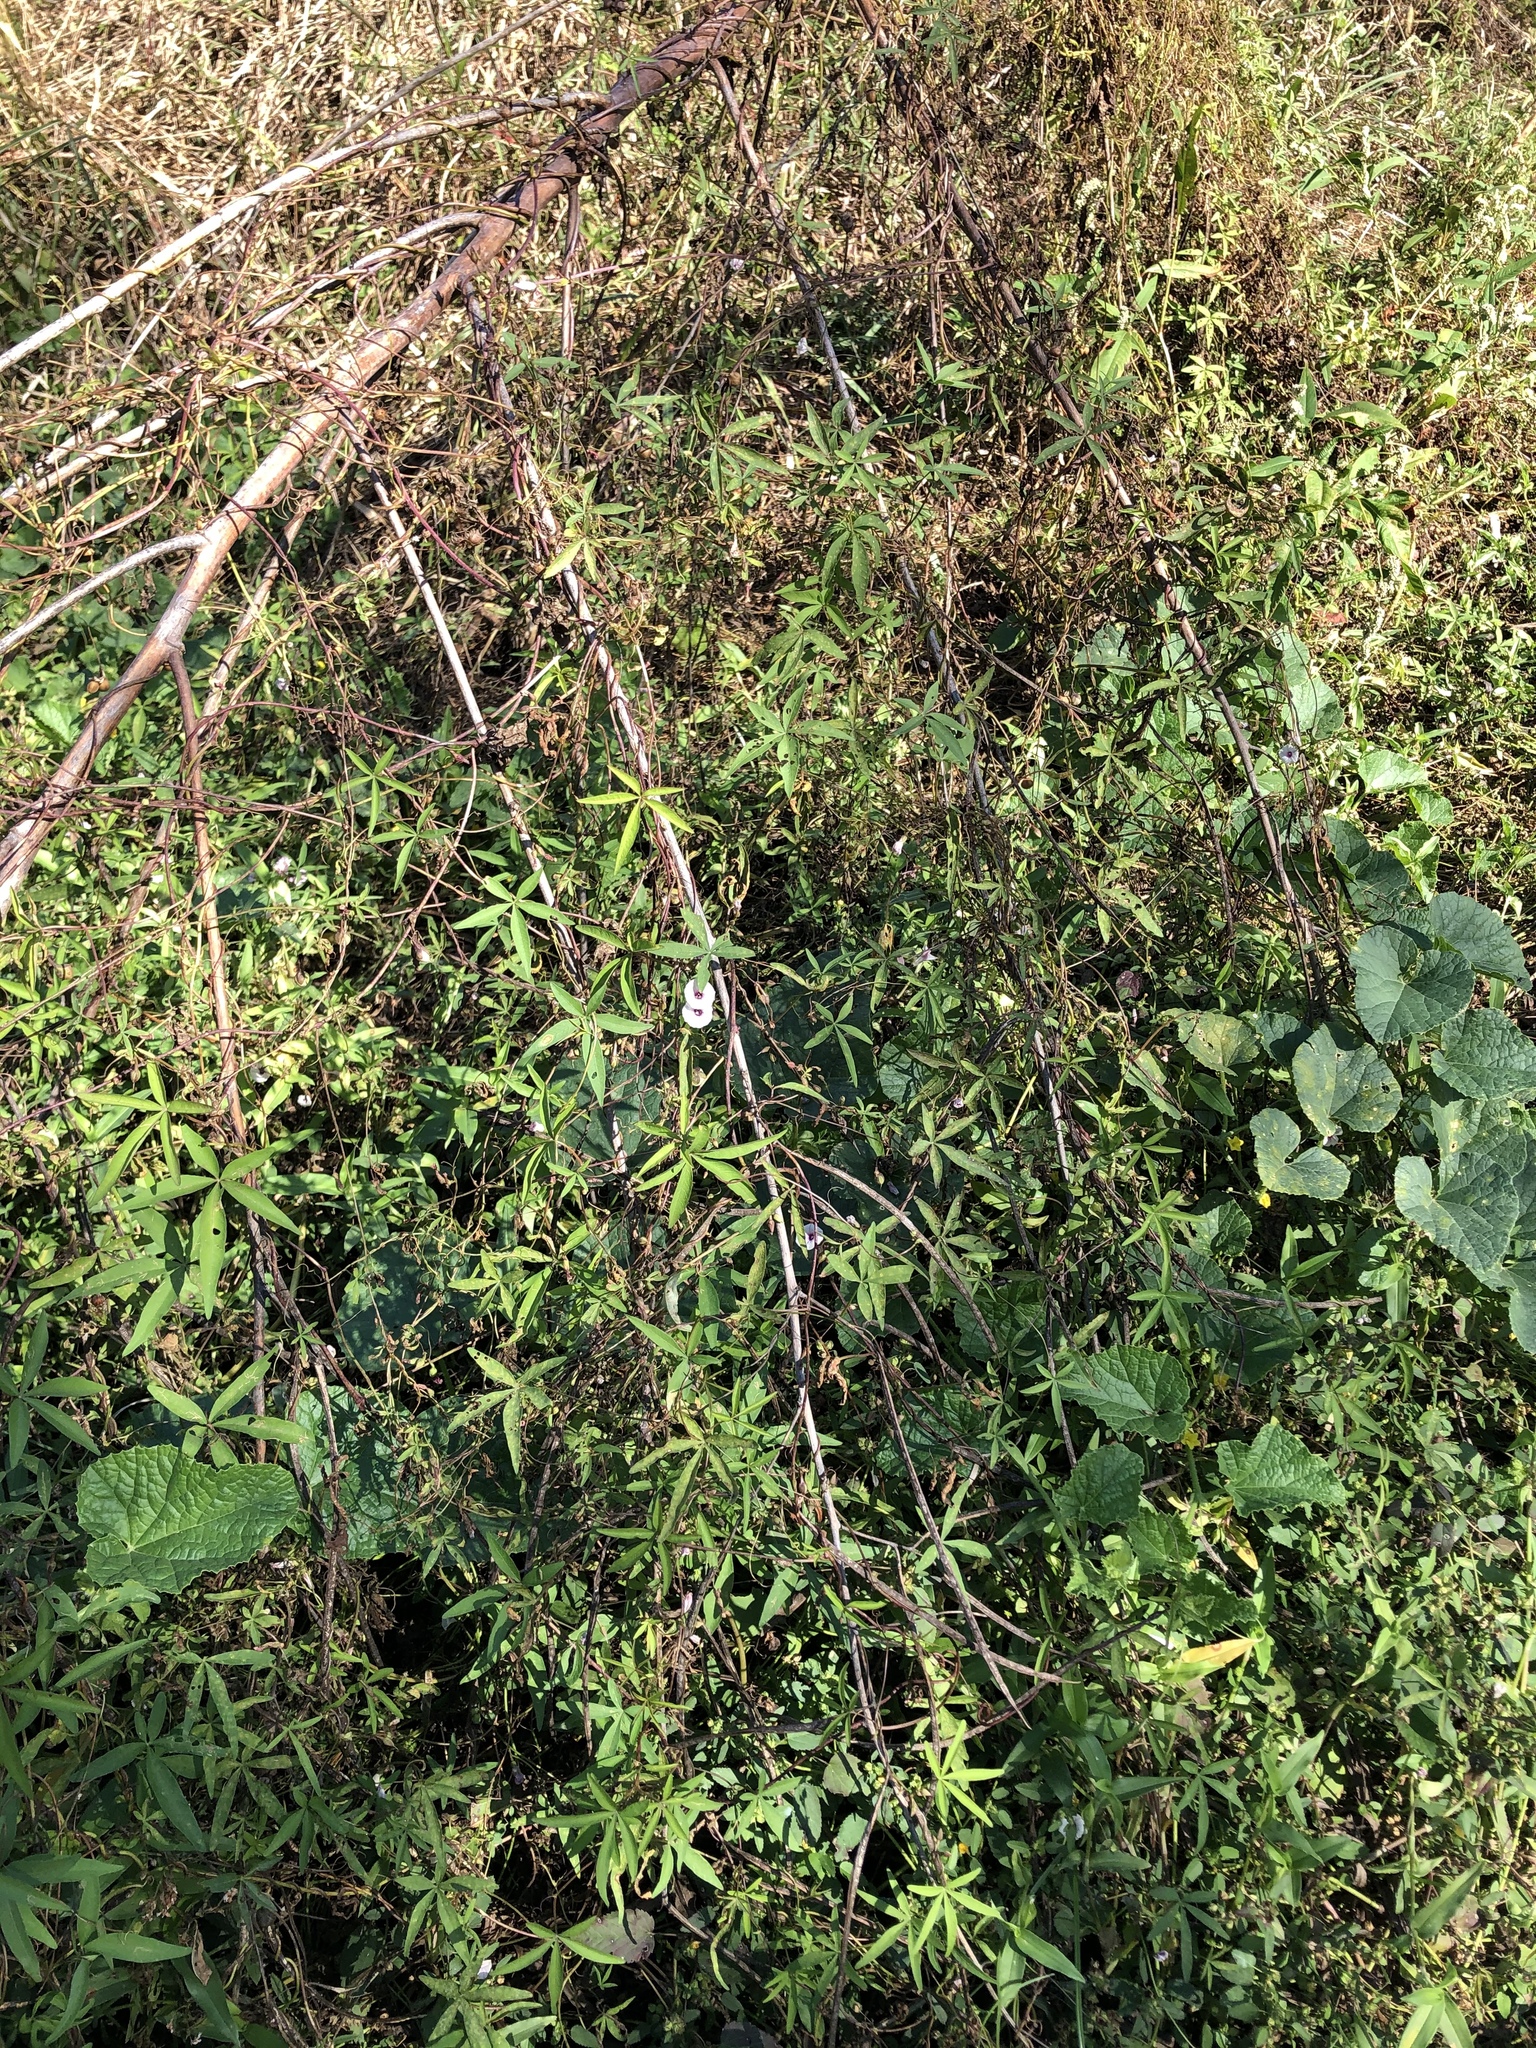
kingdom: Plantae
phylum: Tracheophyta
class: Magnoliopsida
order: Solanales
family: Convolvulaceae
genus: Ipomoea
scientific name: Ipomoea heptaphylla
